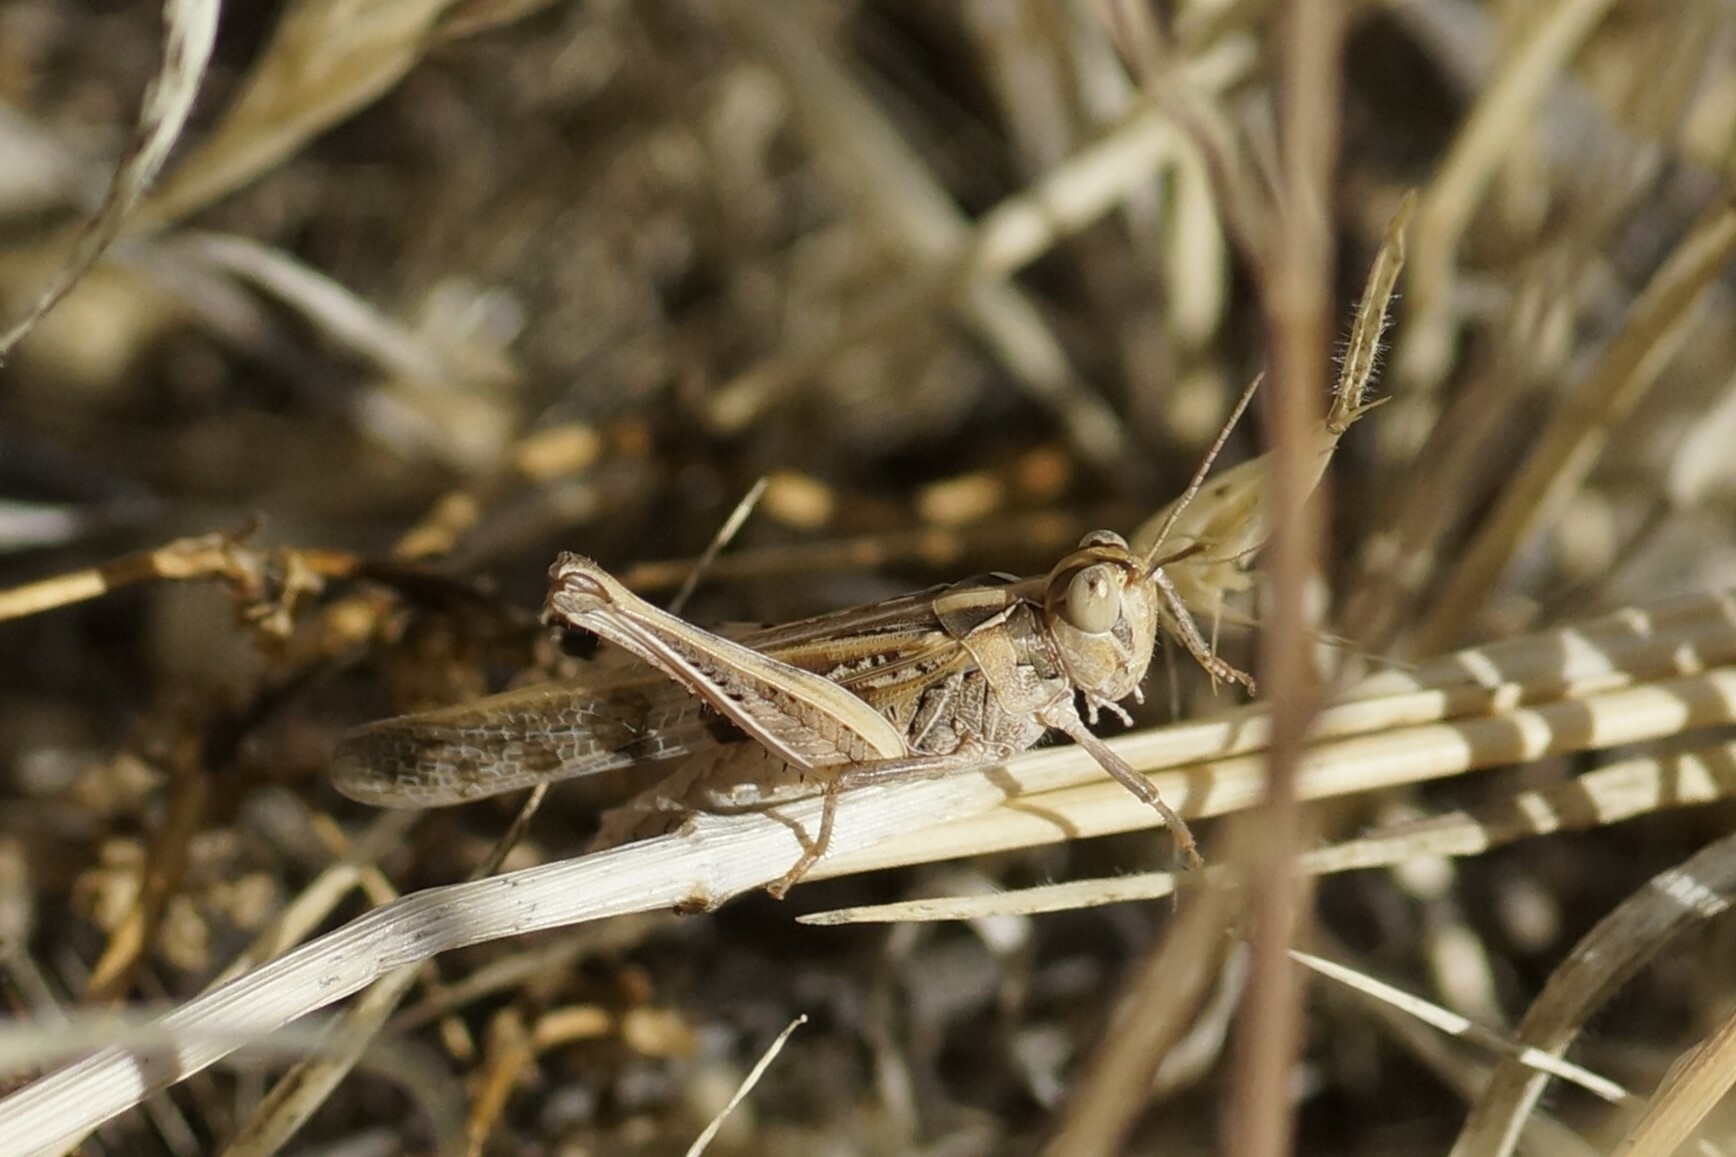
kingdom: Animalia
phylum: Arthropoda
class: Insecta
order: Orthoptera
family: Acrididae
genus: Chortoicetes
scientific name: Chortoicetes terminifera
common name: Australian plague locust
